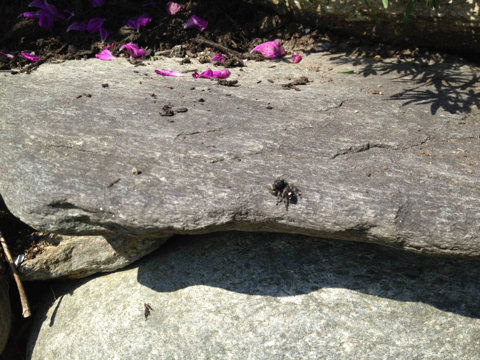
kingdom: Animalia
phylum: Arthropoda
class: Arachnida
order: Araneae
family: Salticidae
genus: Phidippus
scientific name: Phidippus audax
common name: Bold jumper
